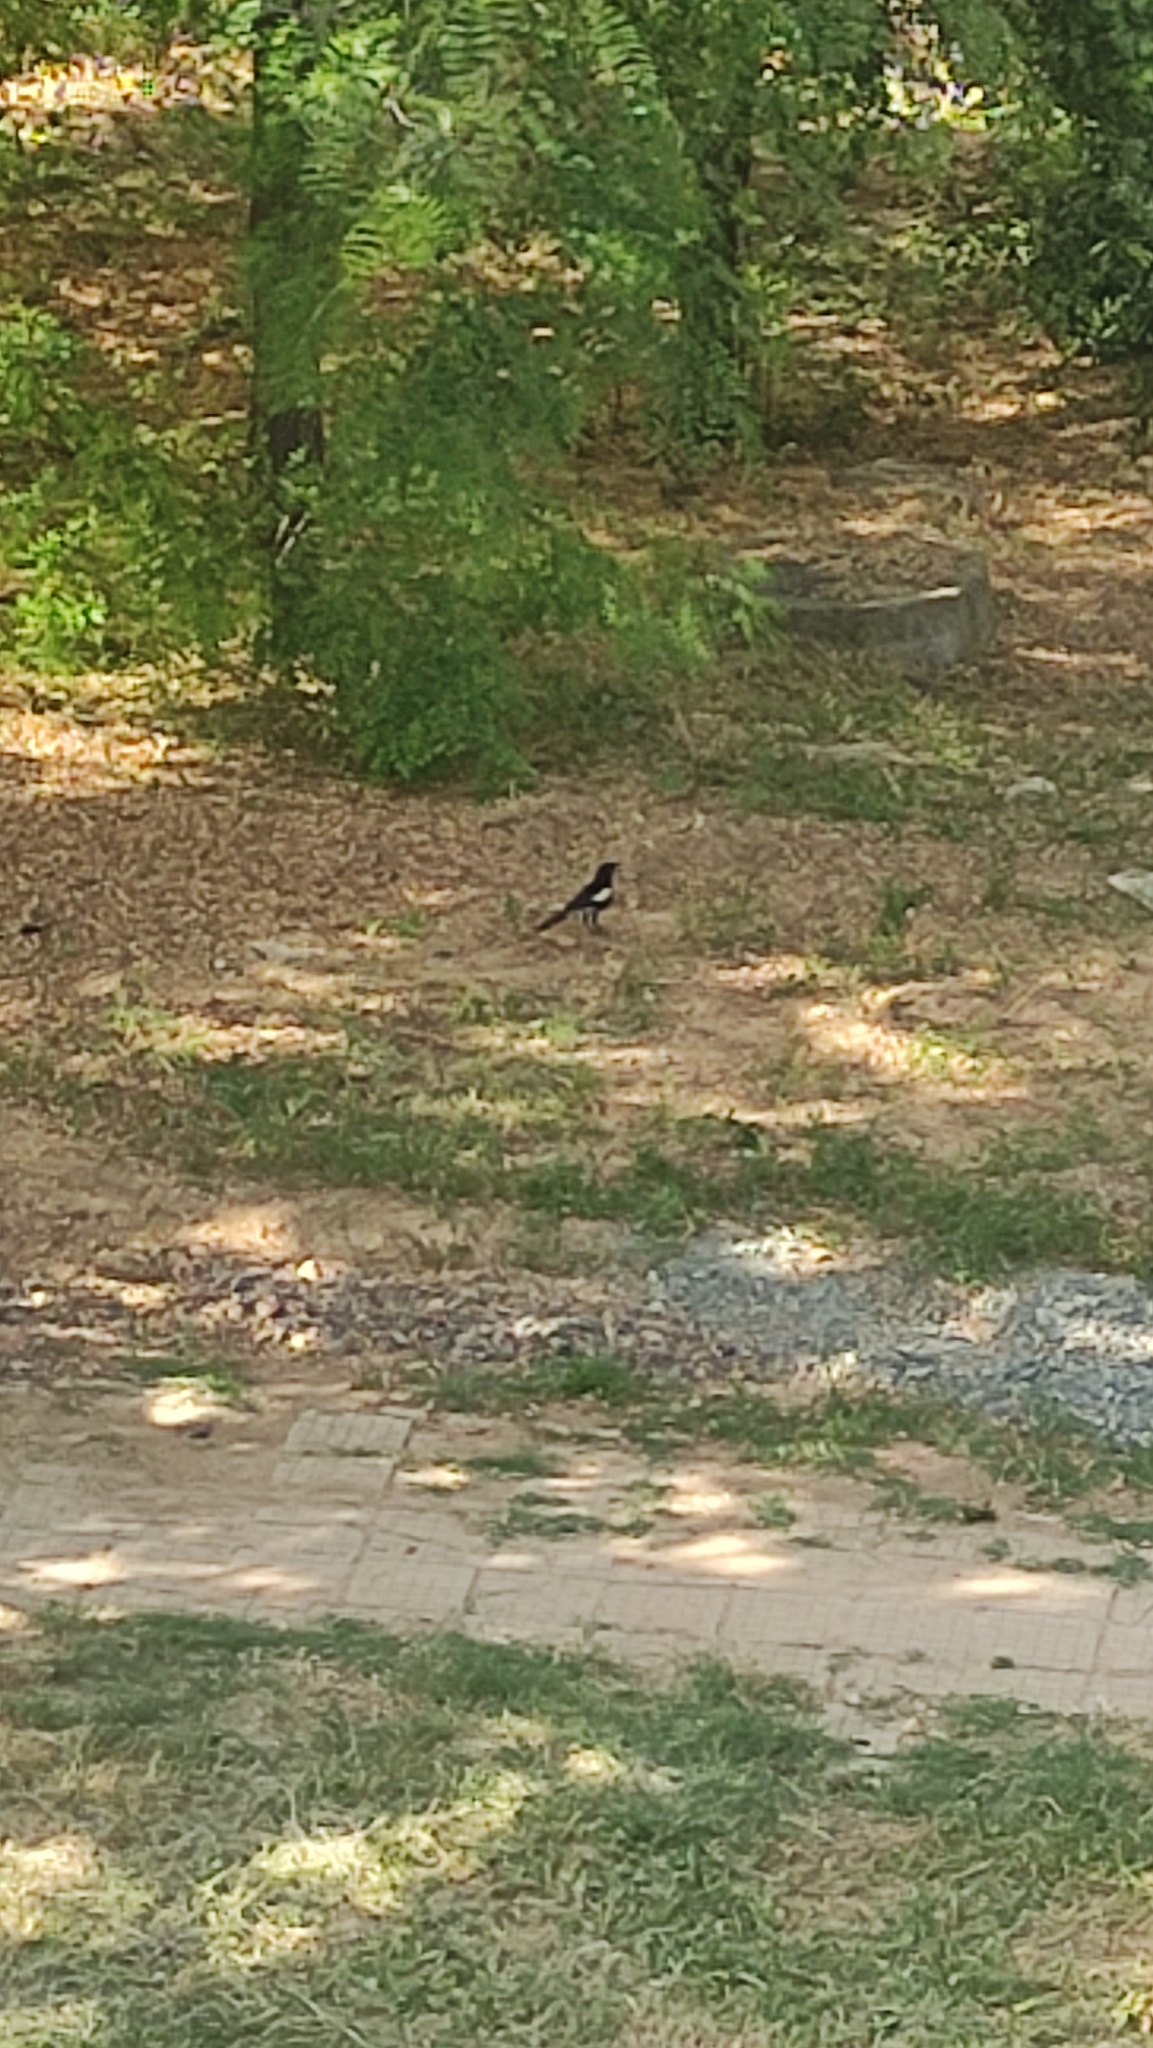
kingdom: Animalia
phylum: Chordata
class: Aves
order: Passeriformes
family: Corvidae
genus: Pica
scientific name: Pica pica
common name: Eurasian magpie
